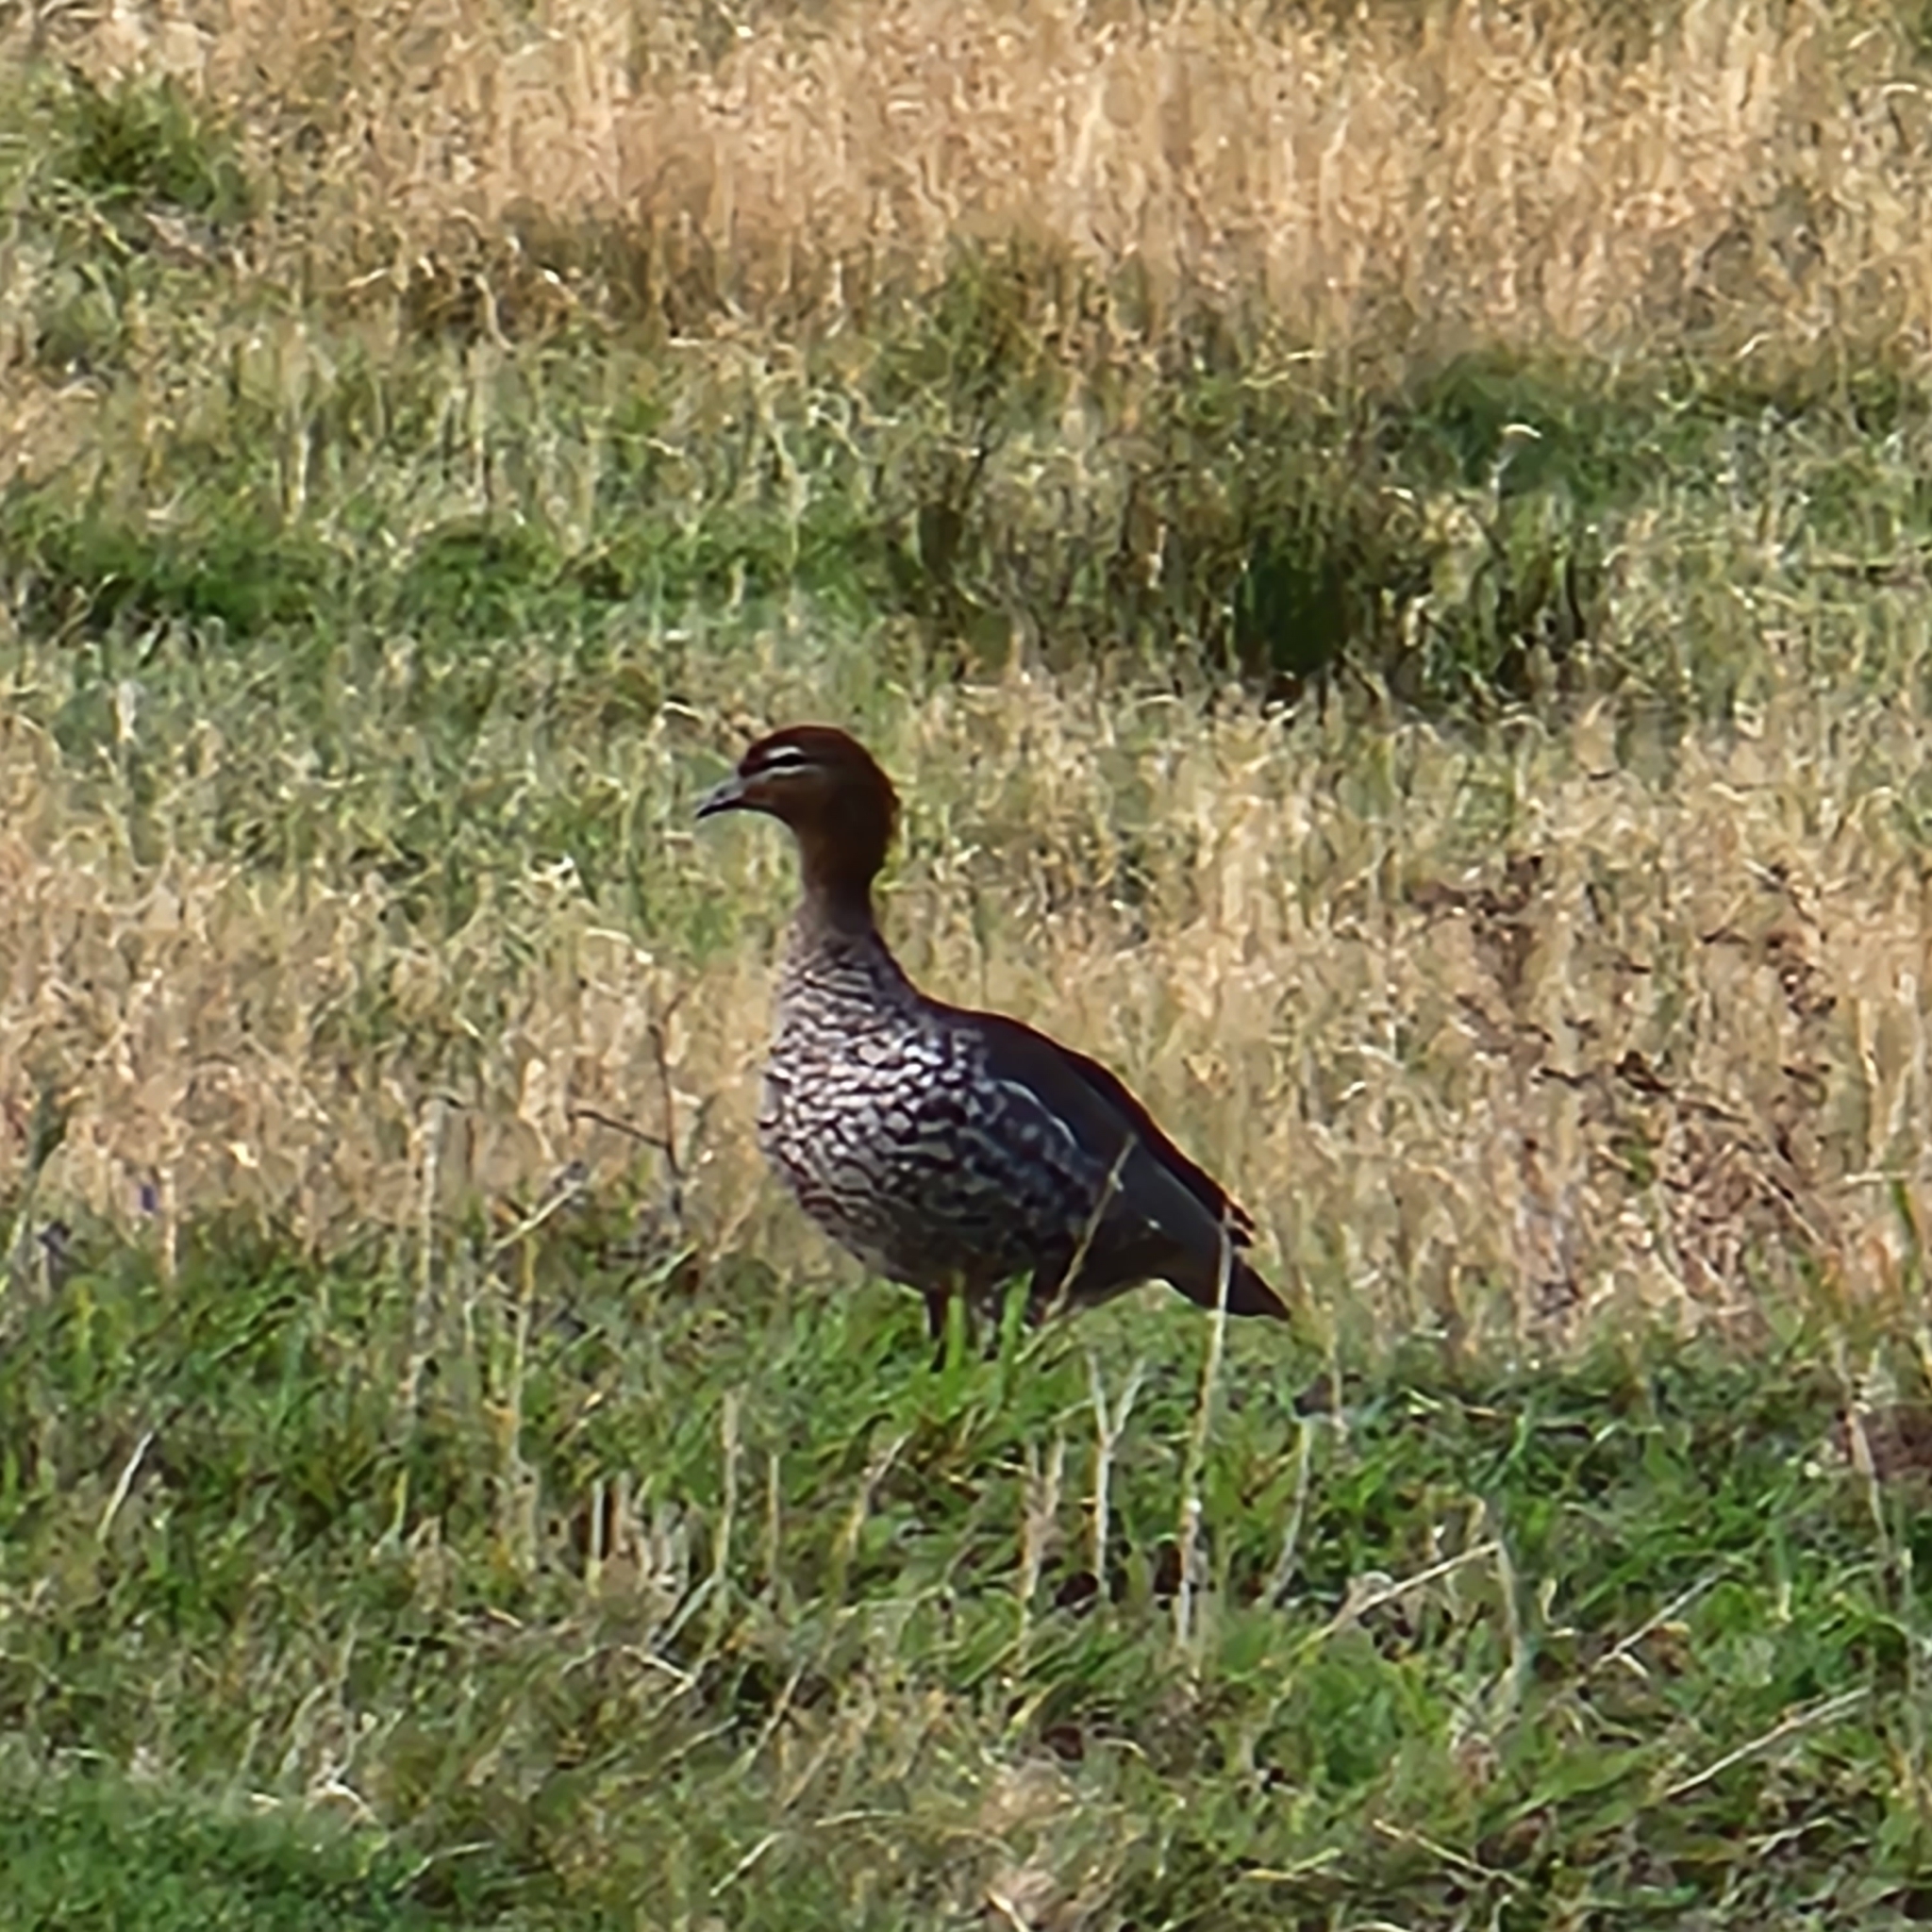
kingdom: Animalia
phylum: Chordata
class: Aves
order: Anseriformes
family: Anatidae
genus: Chenonetta
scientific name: Chenonetta jubata
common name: Maned duck
